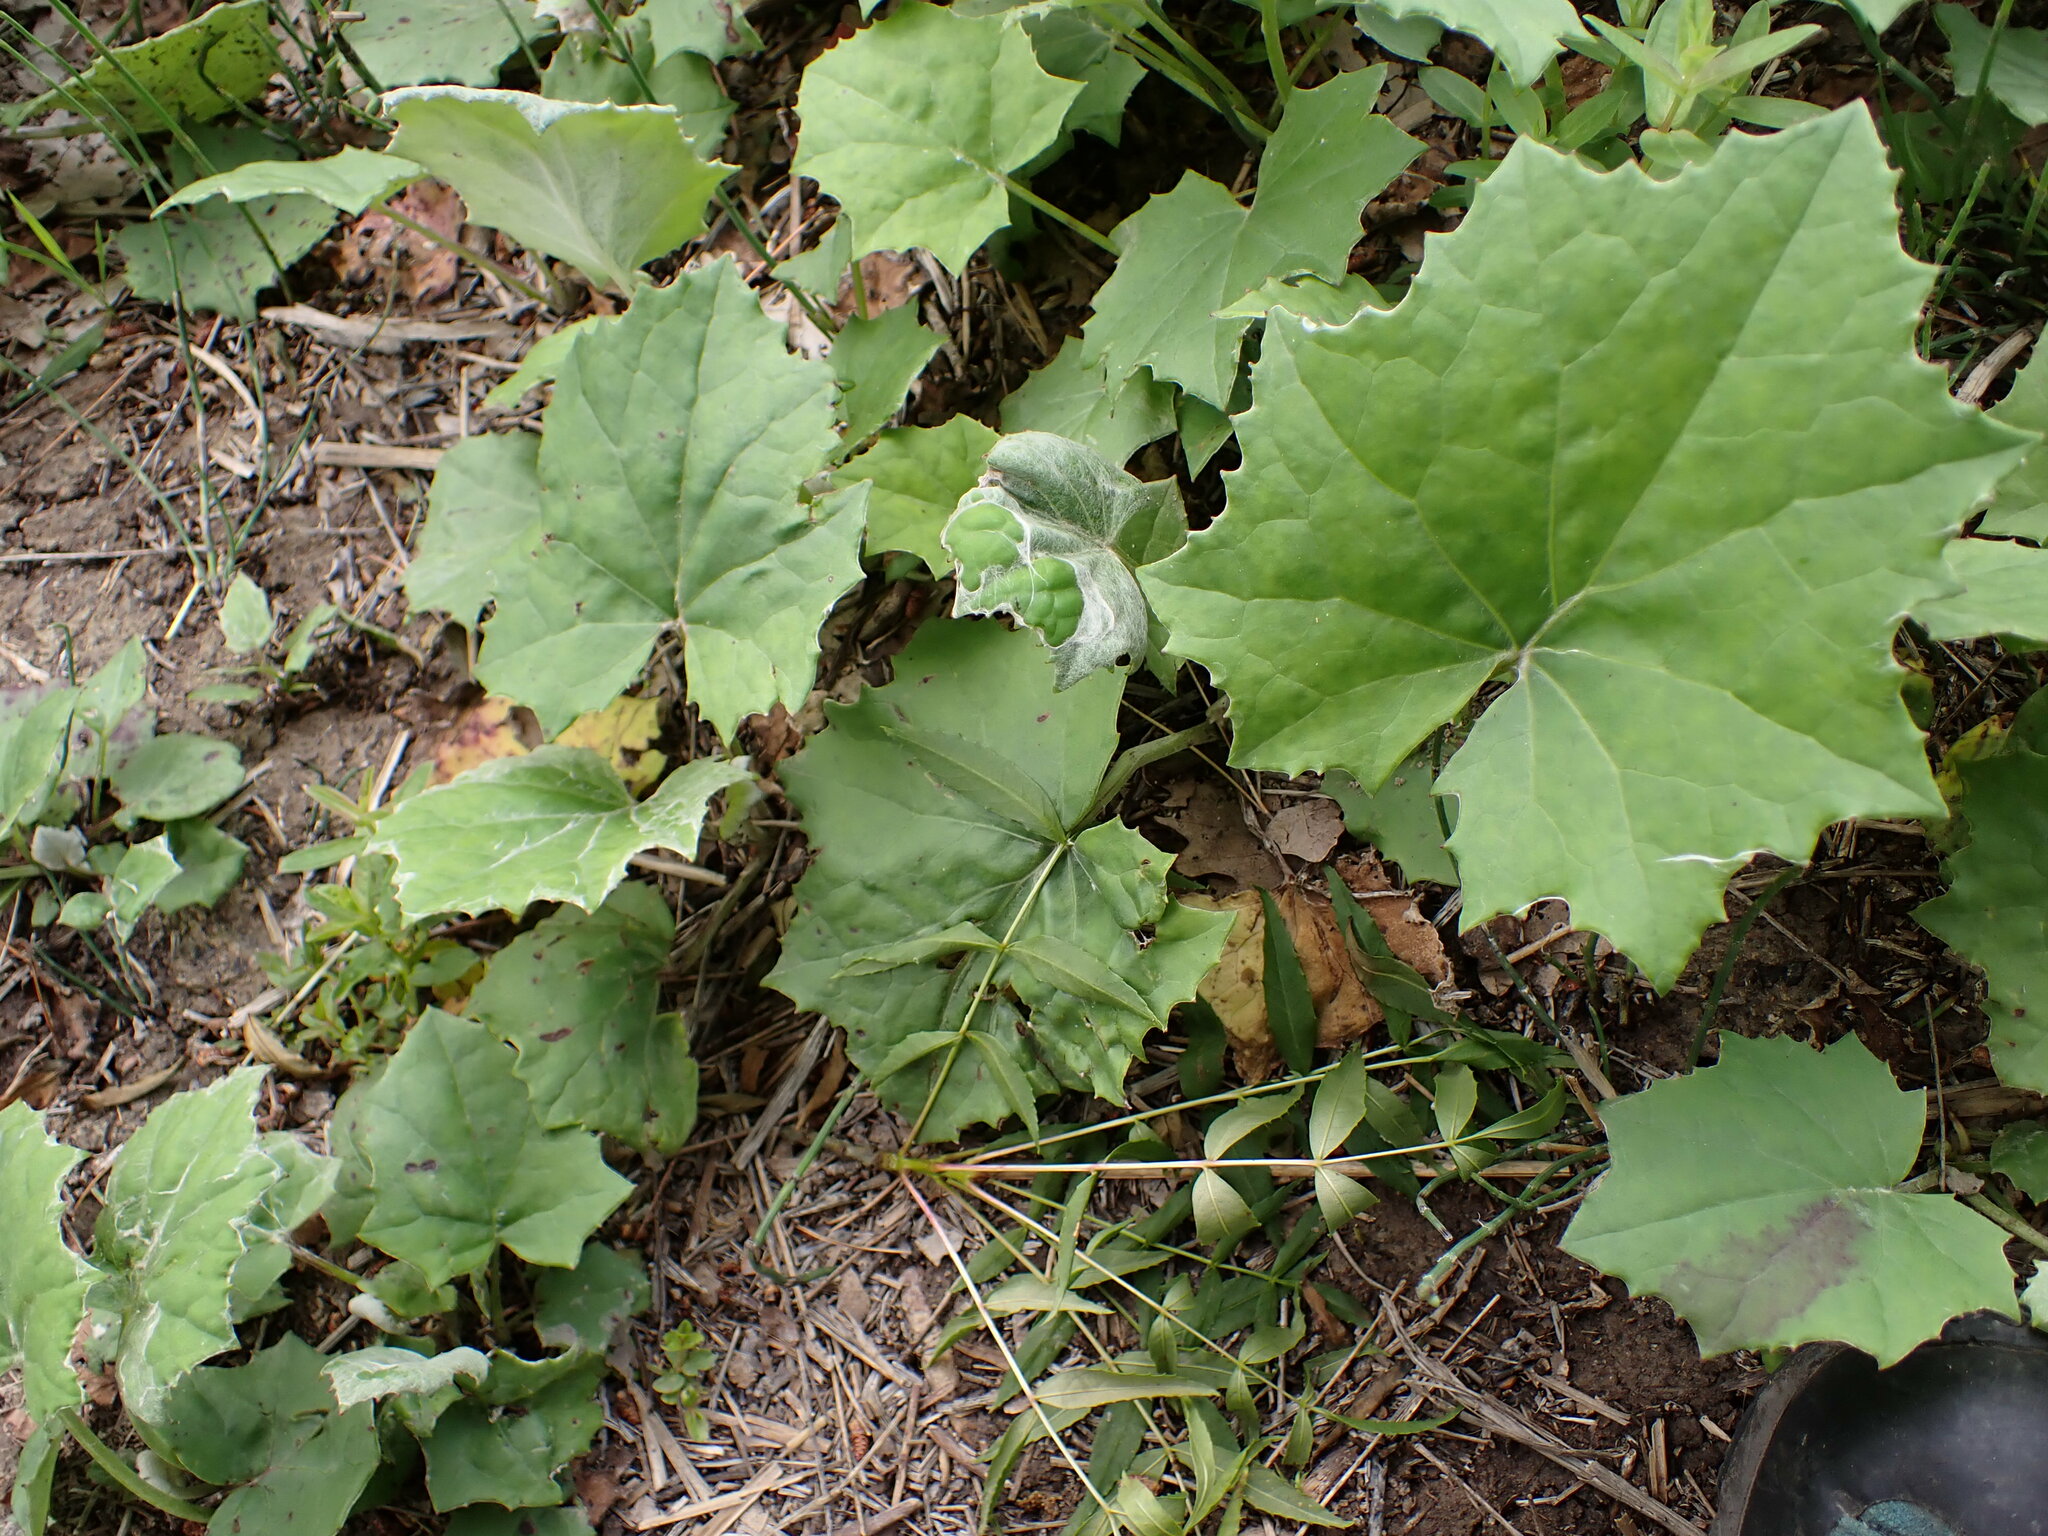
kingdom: Plantae
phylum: Tracheophyta
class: Magnoliopsida
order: Asterales
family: Asteraceae
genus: Tussilago
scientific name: Tussilago farfara
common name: Coltsfoot
